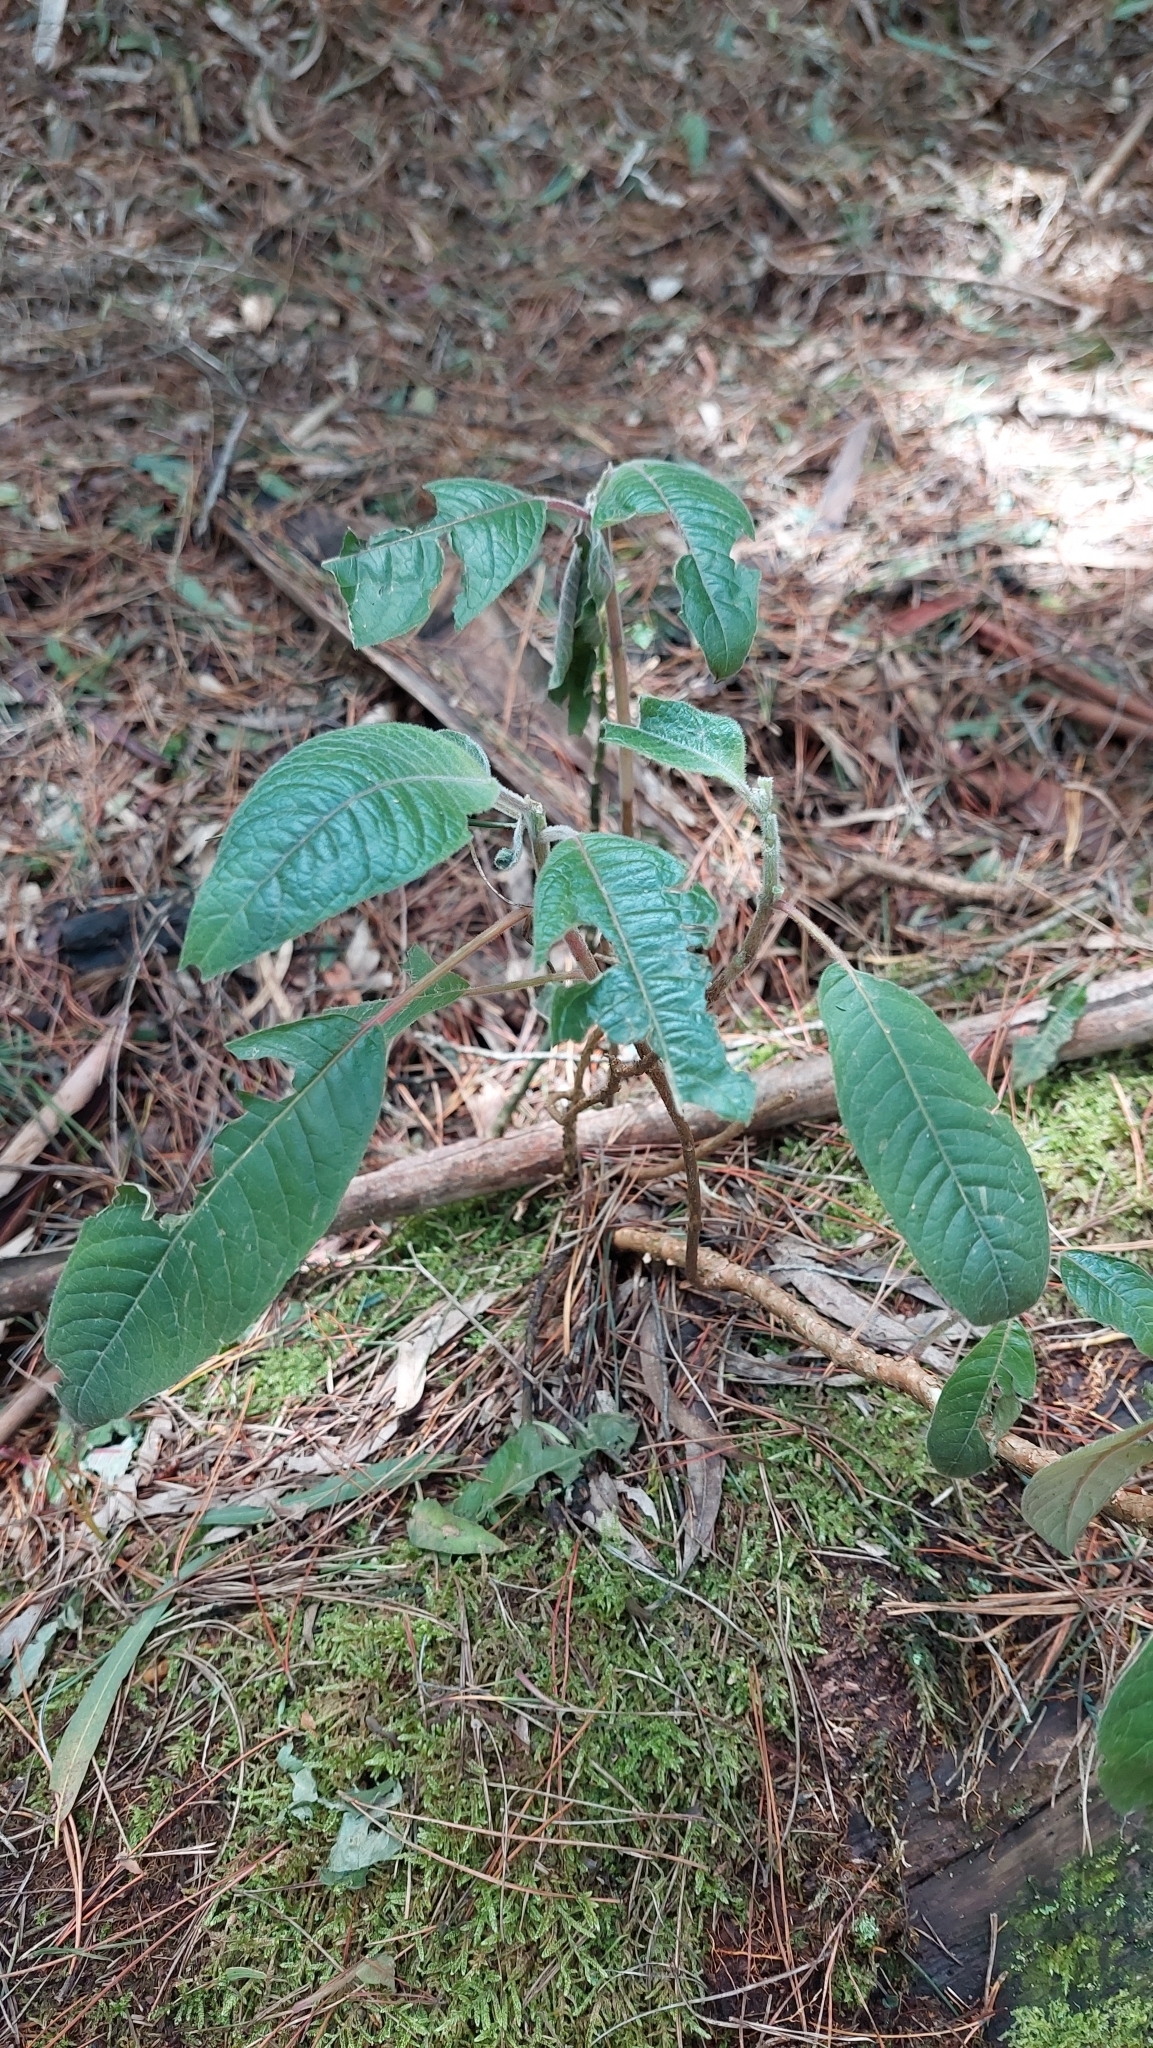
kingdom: Plantae
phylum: Tracheophyta
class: Magnoliopsida
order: Myrtales
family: Onagraceae
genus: Fuchsia
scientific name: Fuchsia boliviana
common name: Bolivian fuchsia
